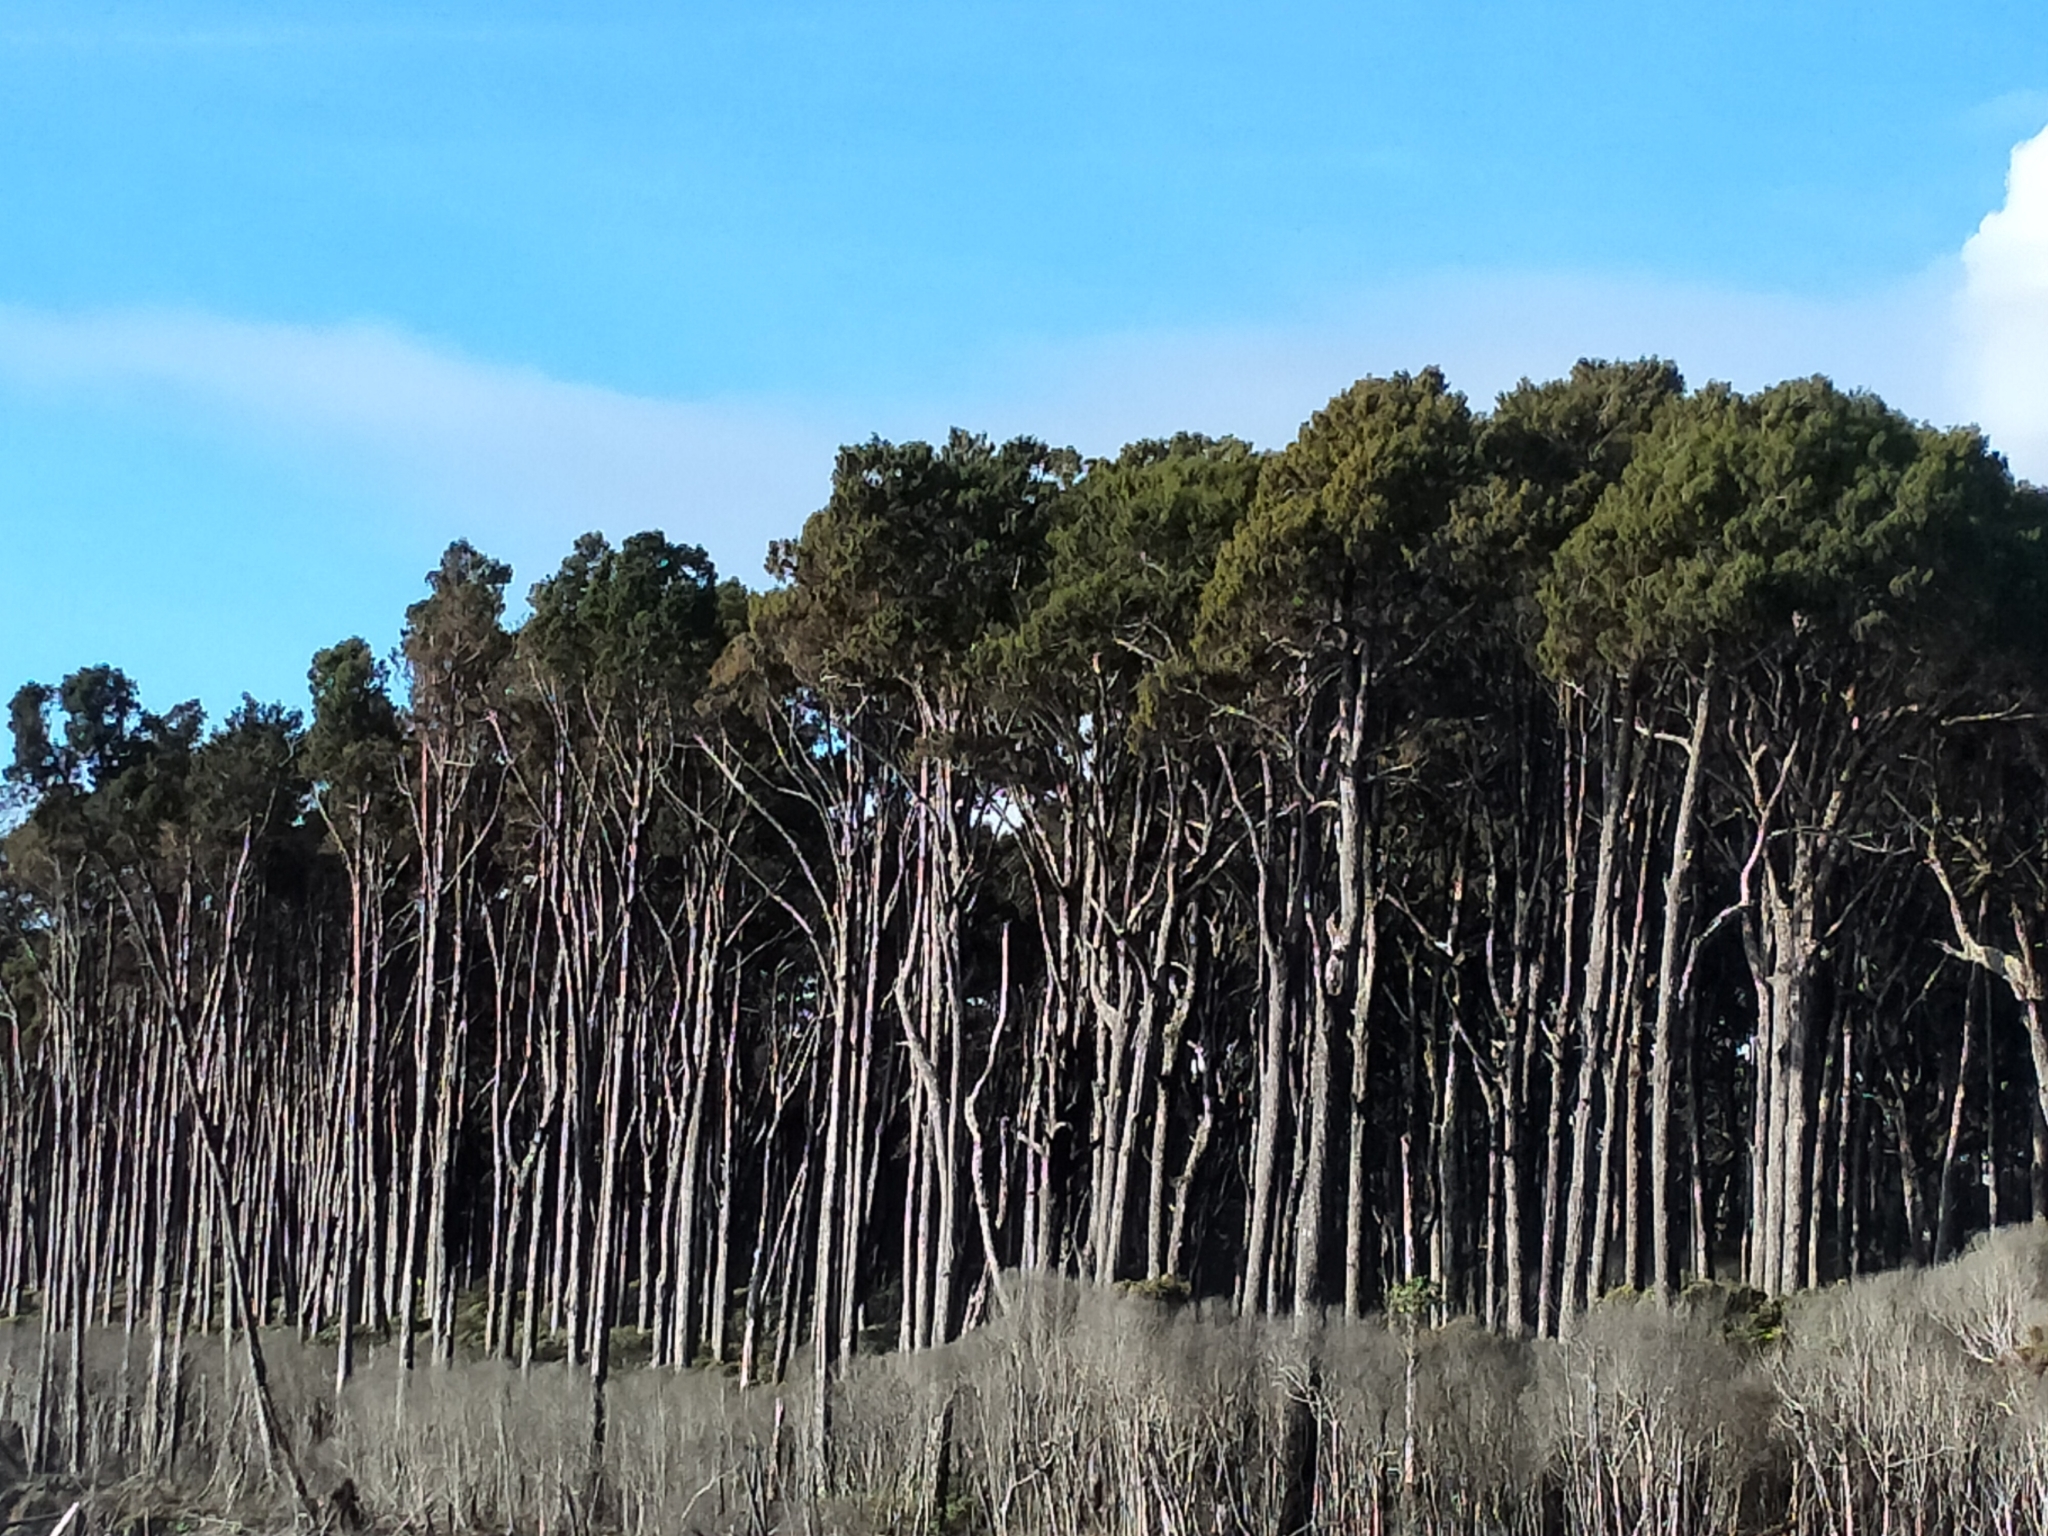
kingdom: Plantae
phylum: Tracheophyta
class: Pinopsida
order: Pinales
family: Podocarpaceae
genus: Dacrydium
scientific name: Dacrydium cupressinum
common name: Red pine
